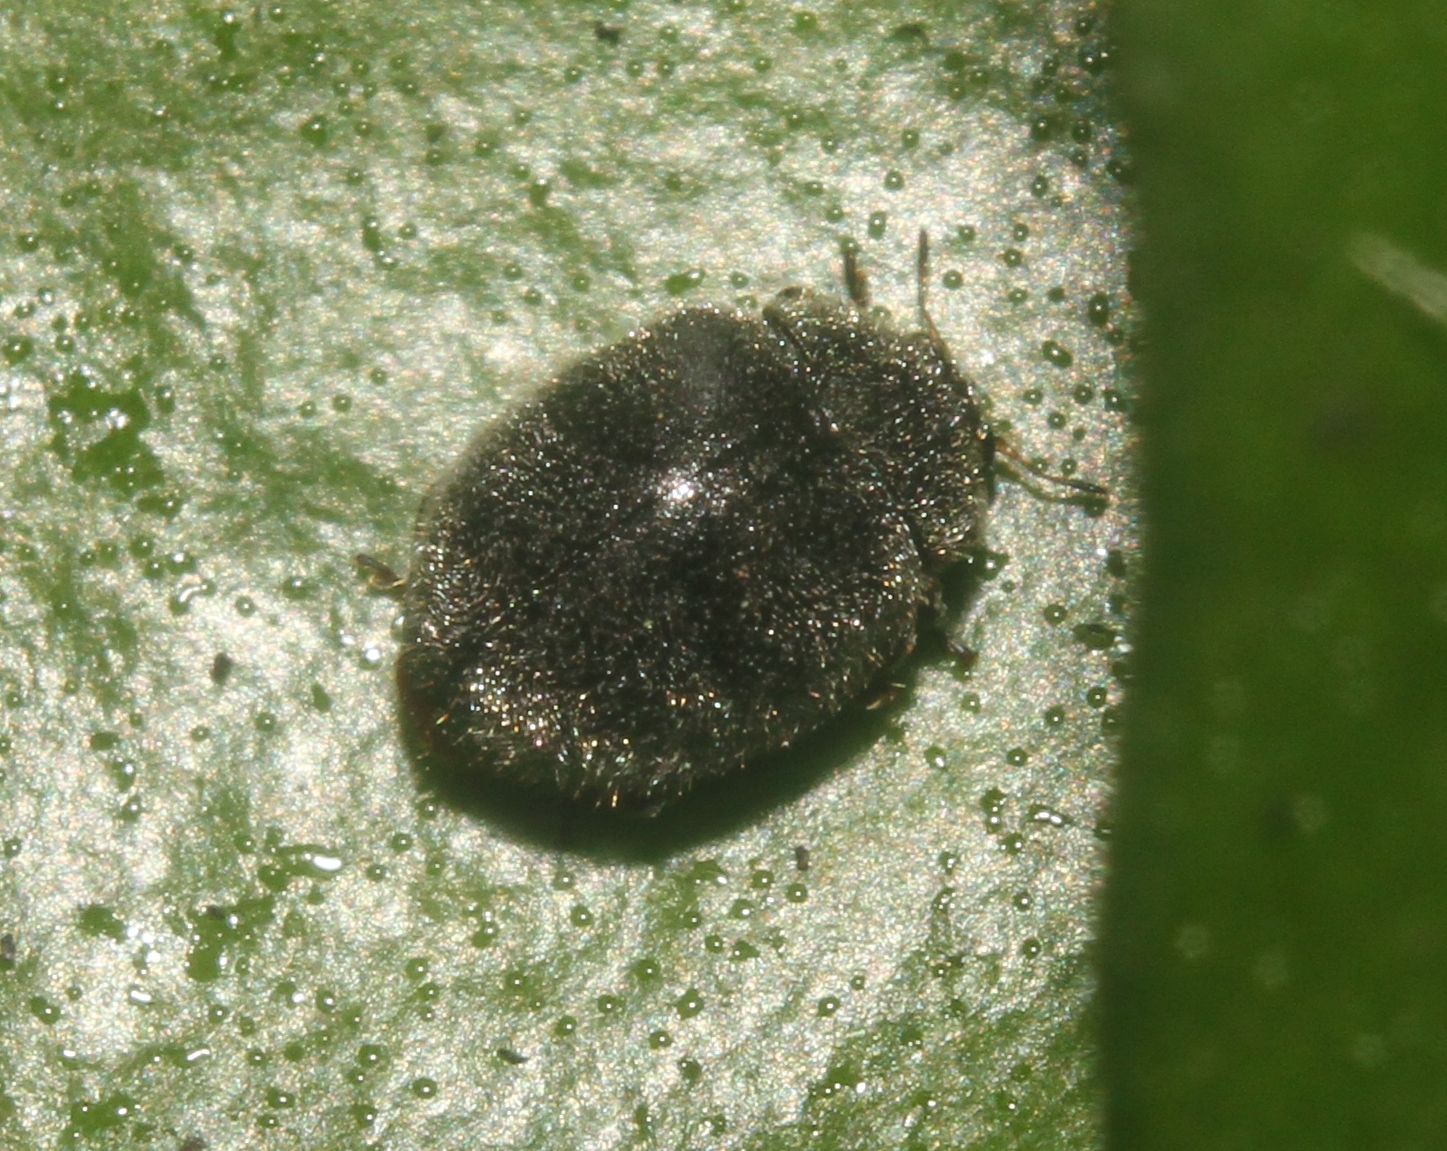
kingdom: Animalia
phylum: Arthropoda
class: Insecta
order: Coleoptera
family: Coccinellidae
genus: Rhyzobius
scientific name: Rhyzobius forestieri
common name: Ladybird beetle
